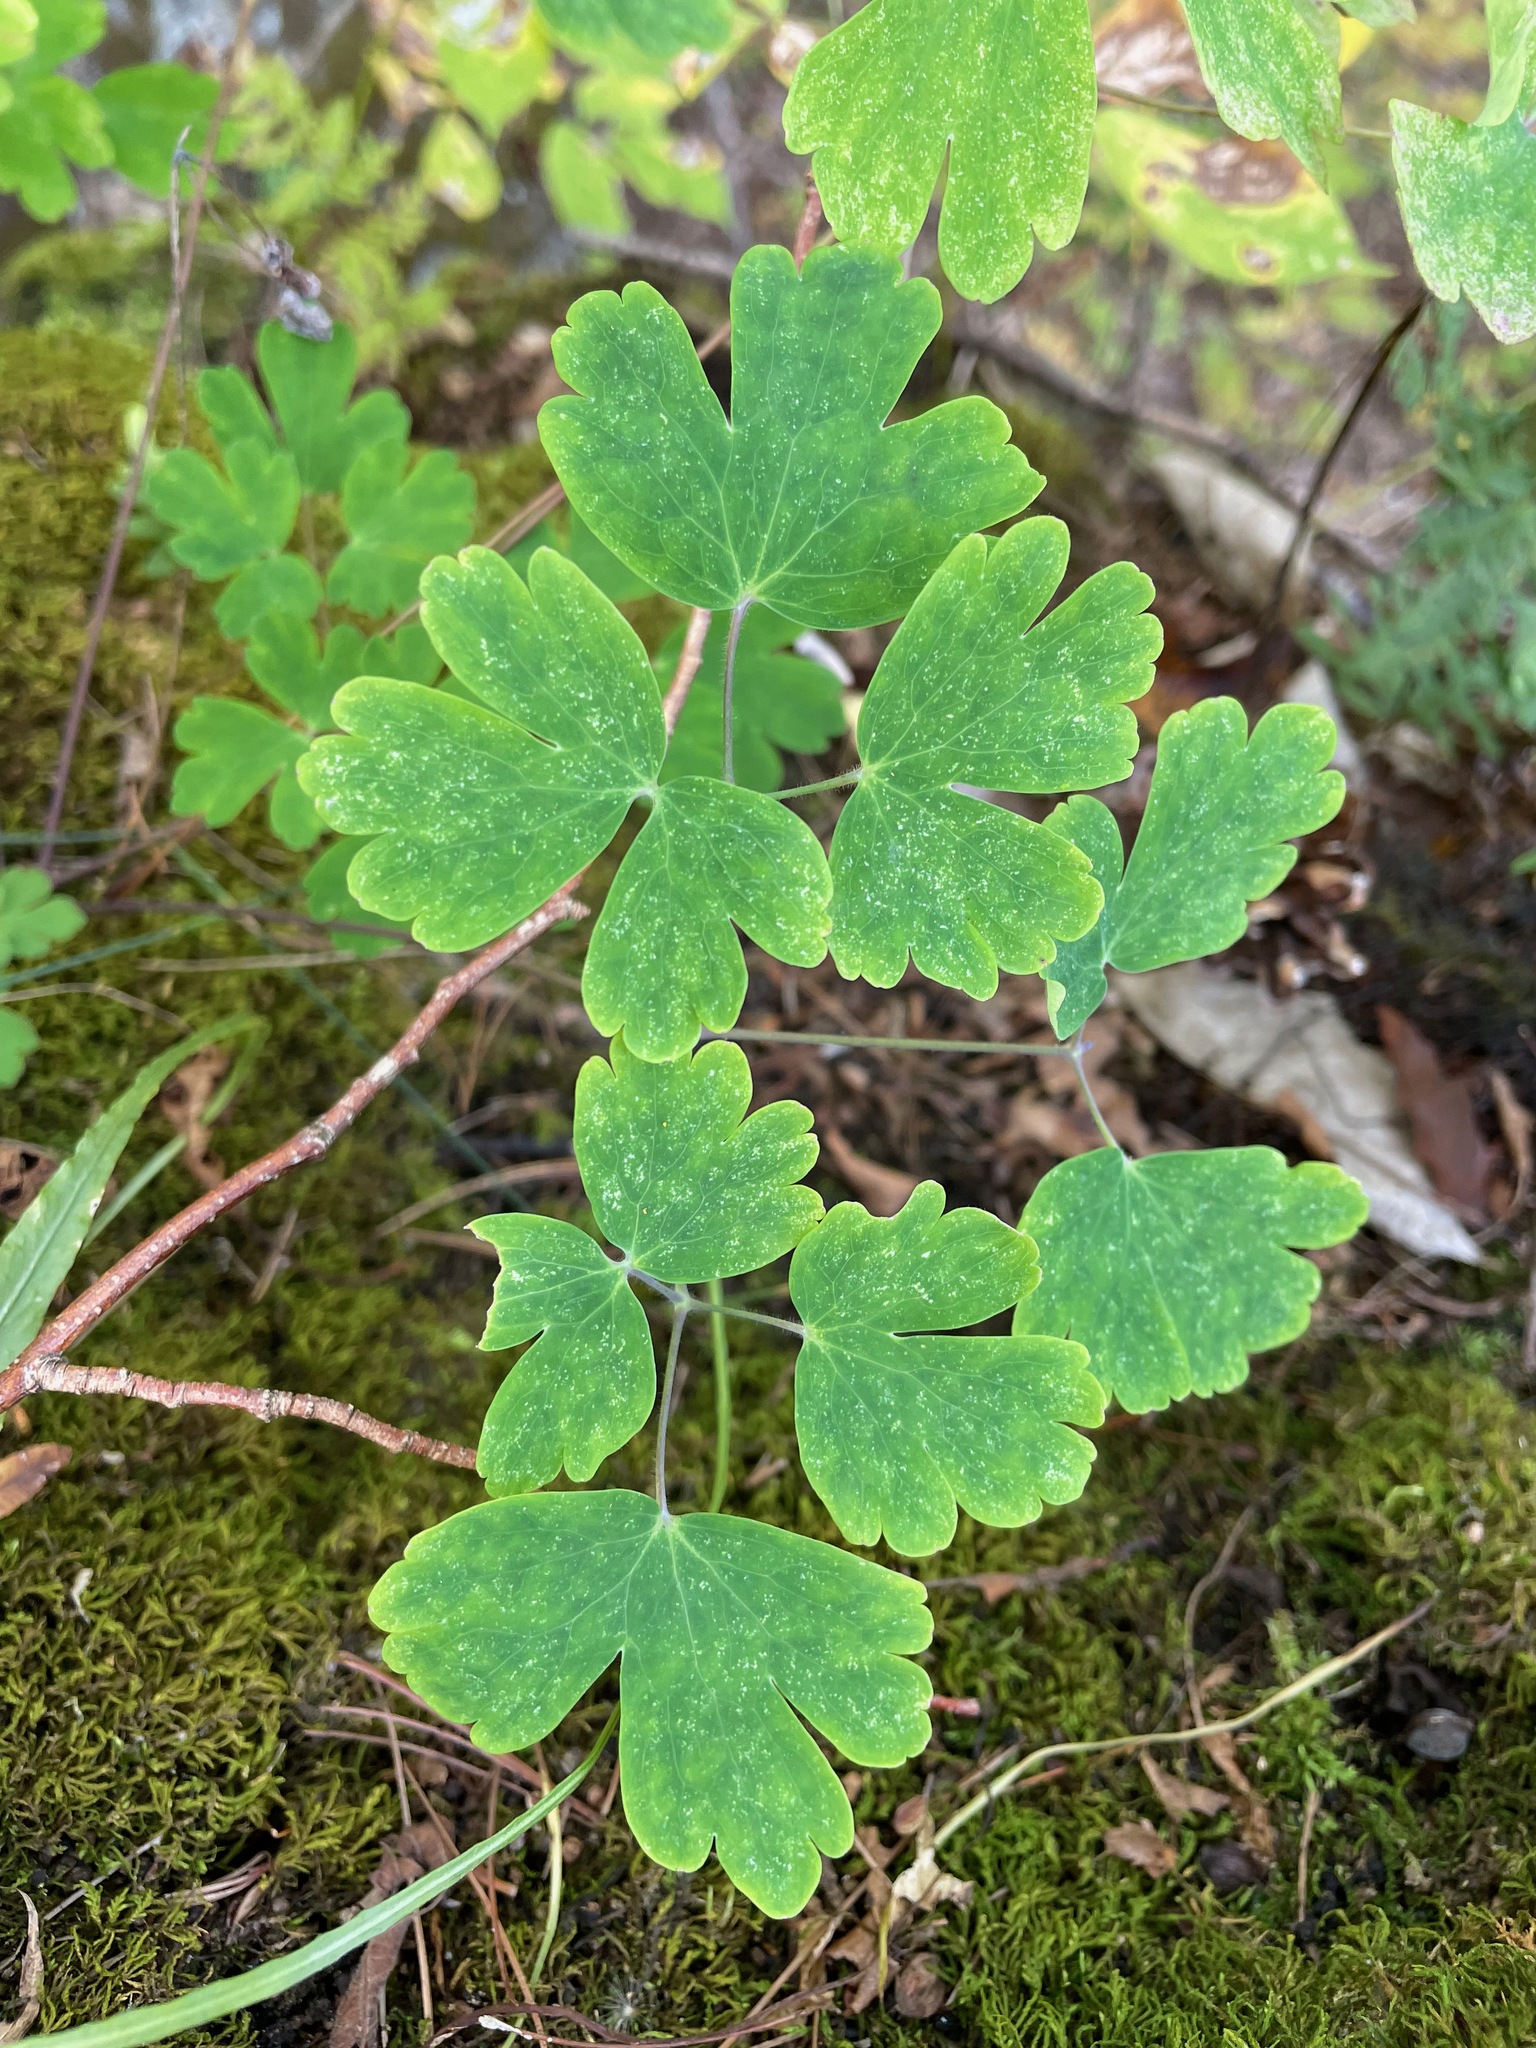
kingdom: Plantae
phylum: Tracheophyta
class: Magnoliopsida
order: Ranunculales
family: Ranunculaceae
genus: Aquilegia
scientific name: Aquilegia canadensis
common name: American columbine
